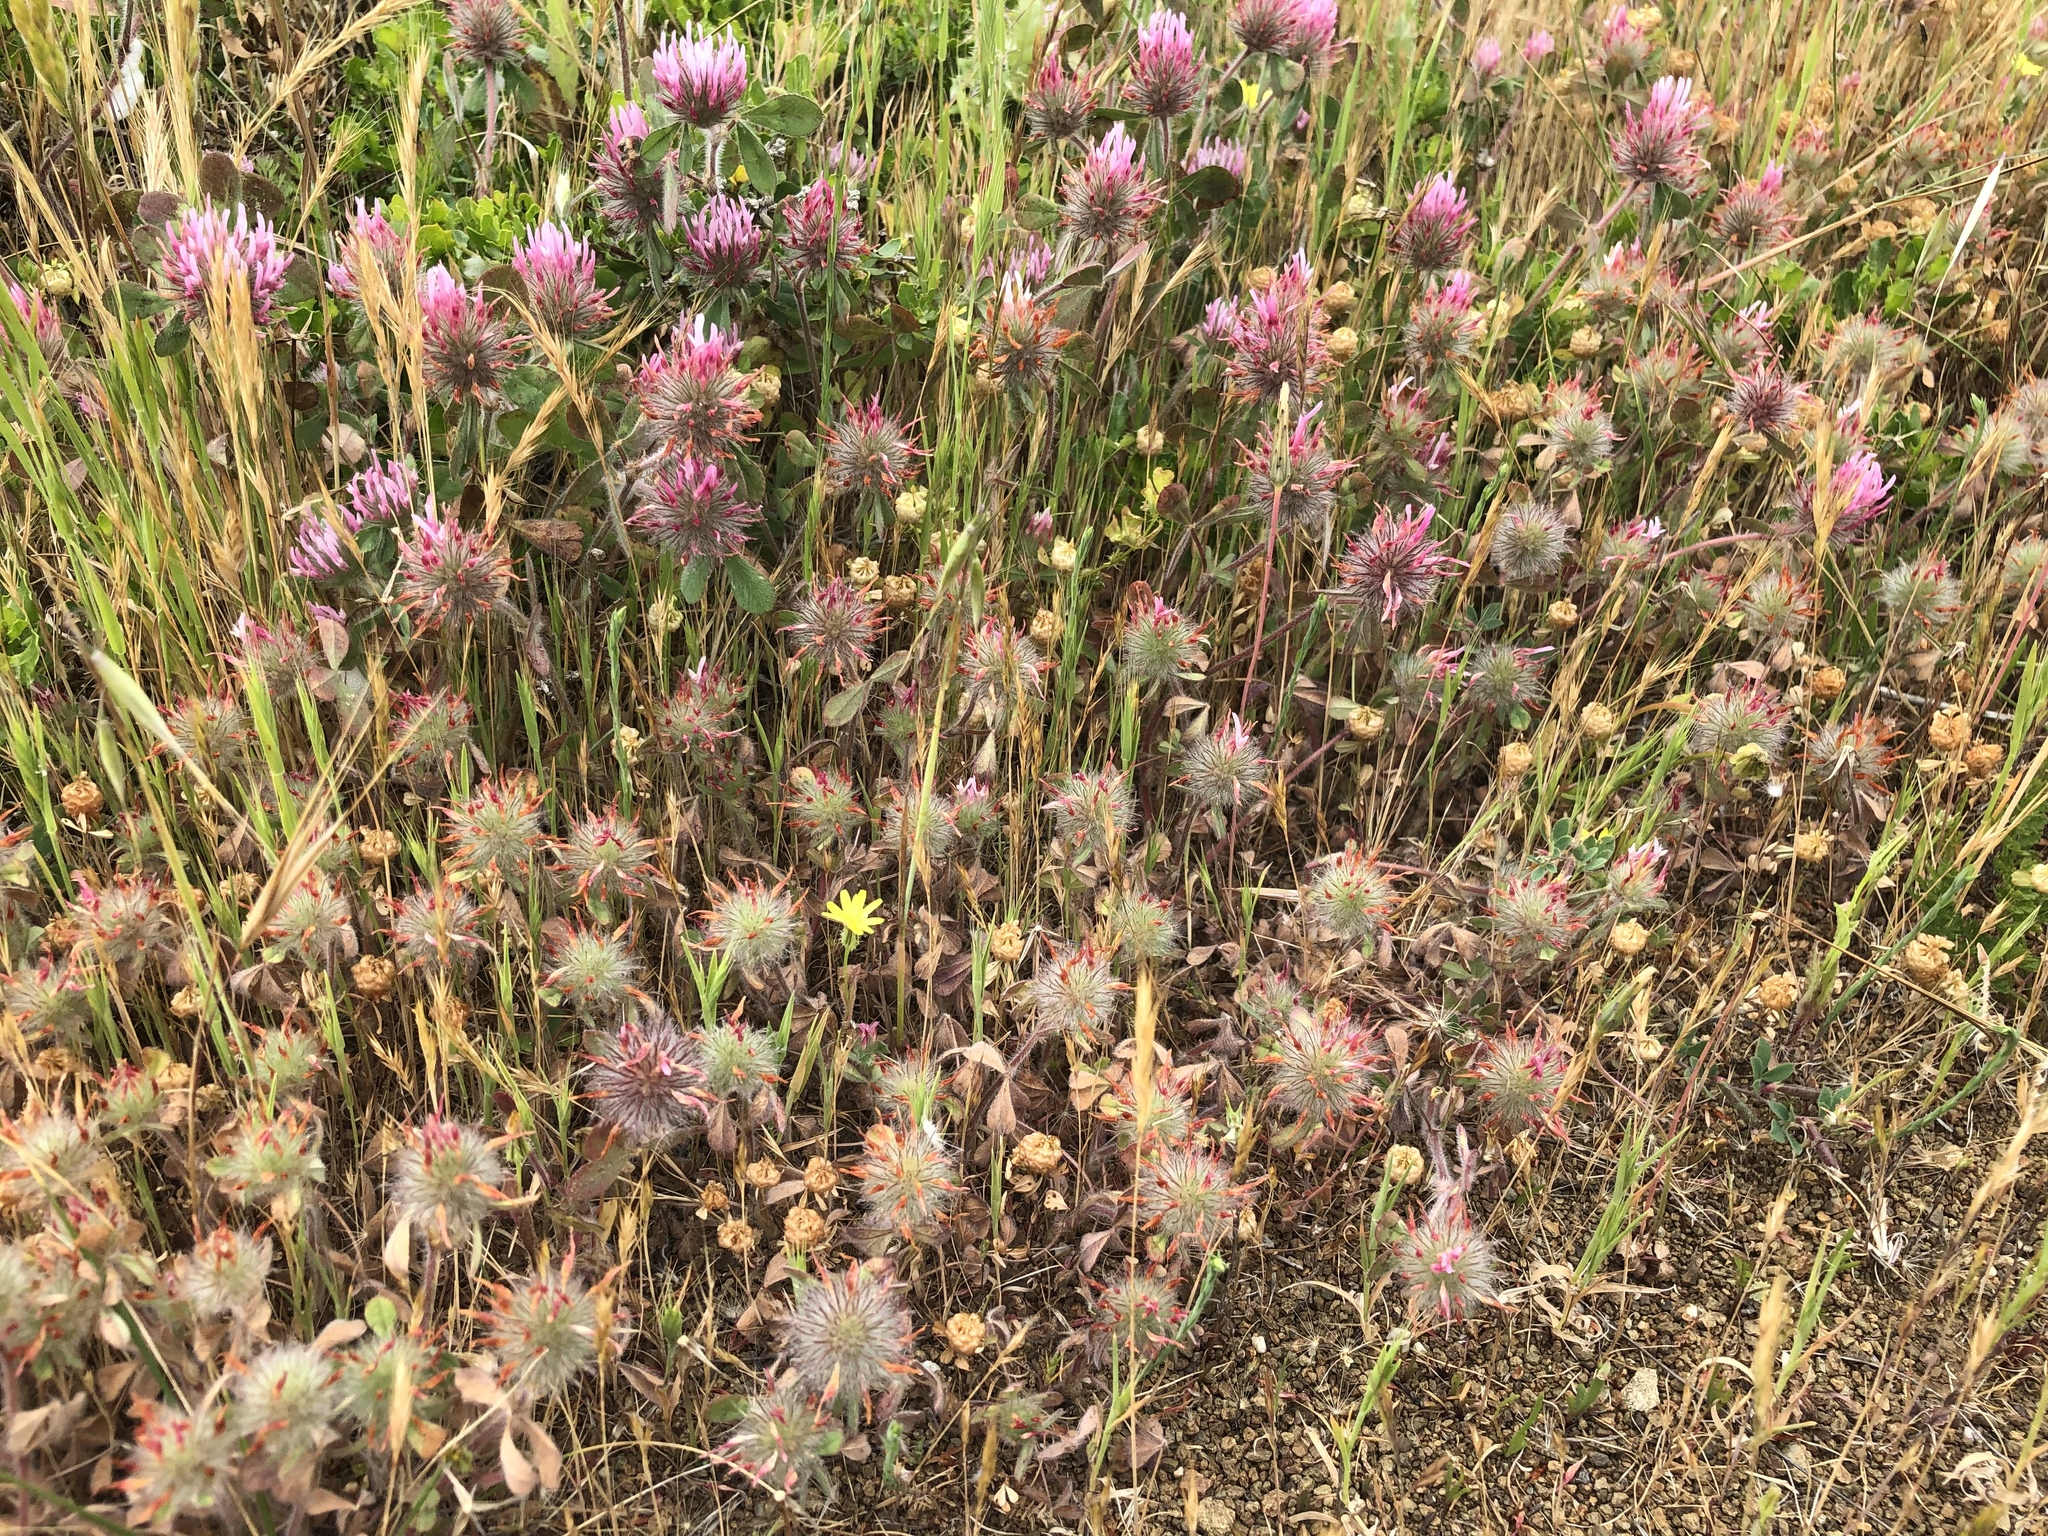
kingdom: Plantae
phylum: Tracheophyta
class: Magnoliopsida
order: Fabales
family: Fabaceae
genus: Trifolium
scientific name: Trifolium hirtum
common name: Rose clover
